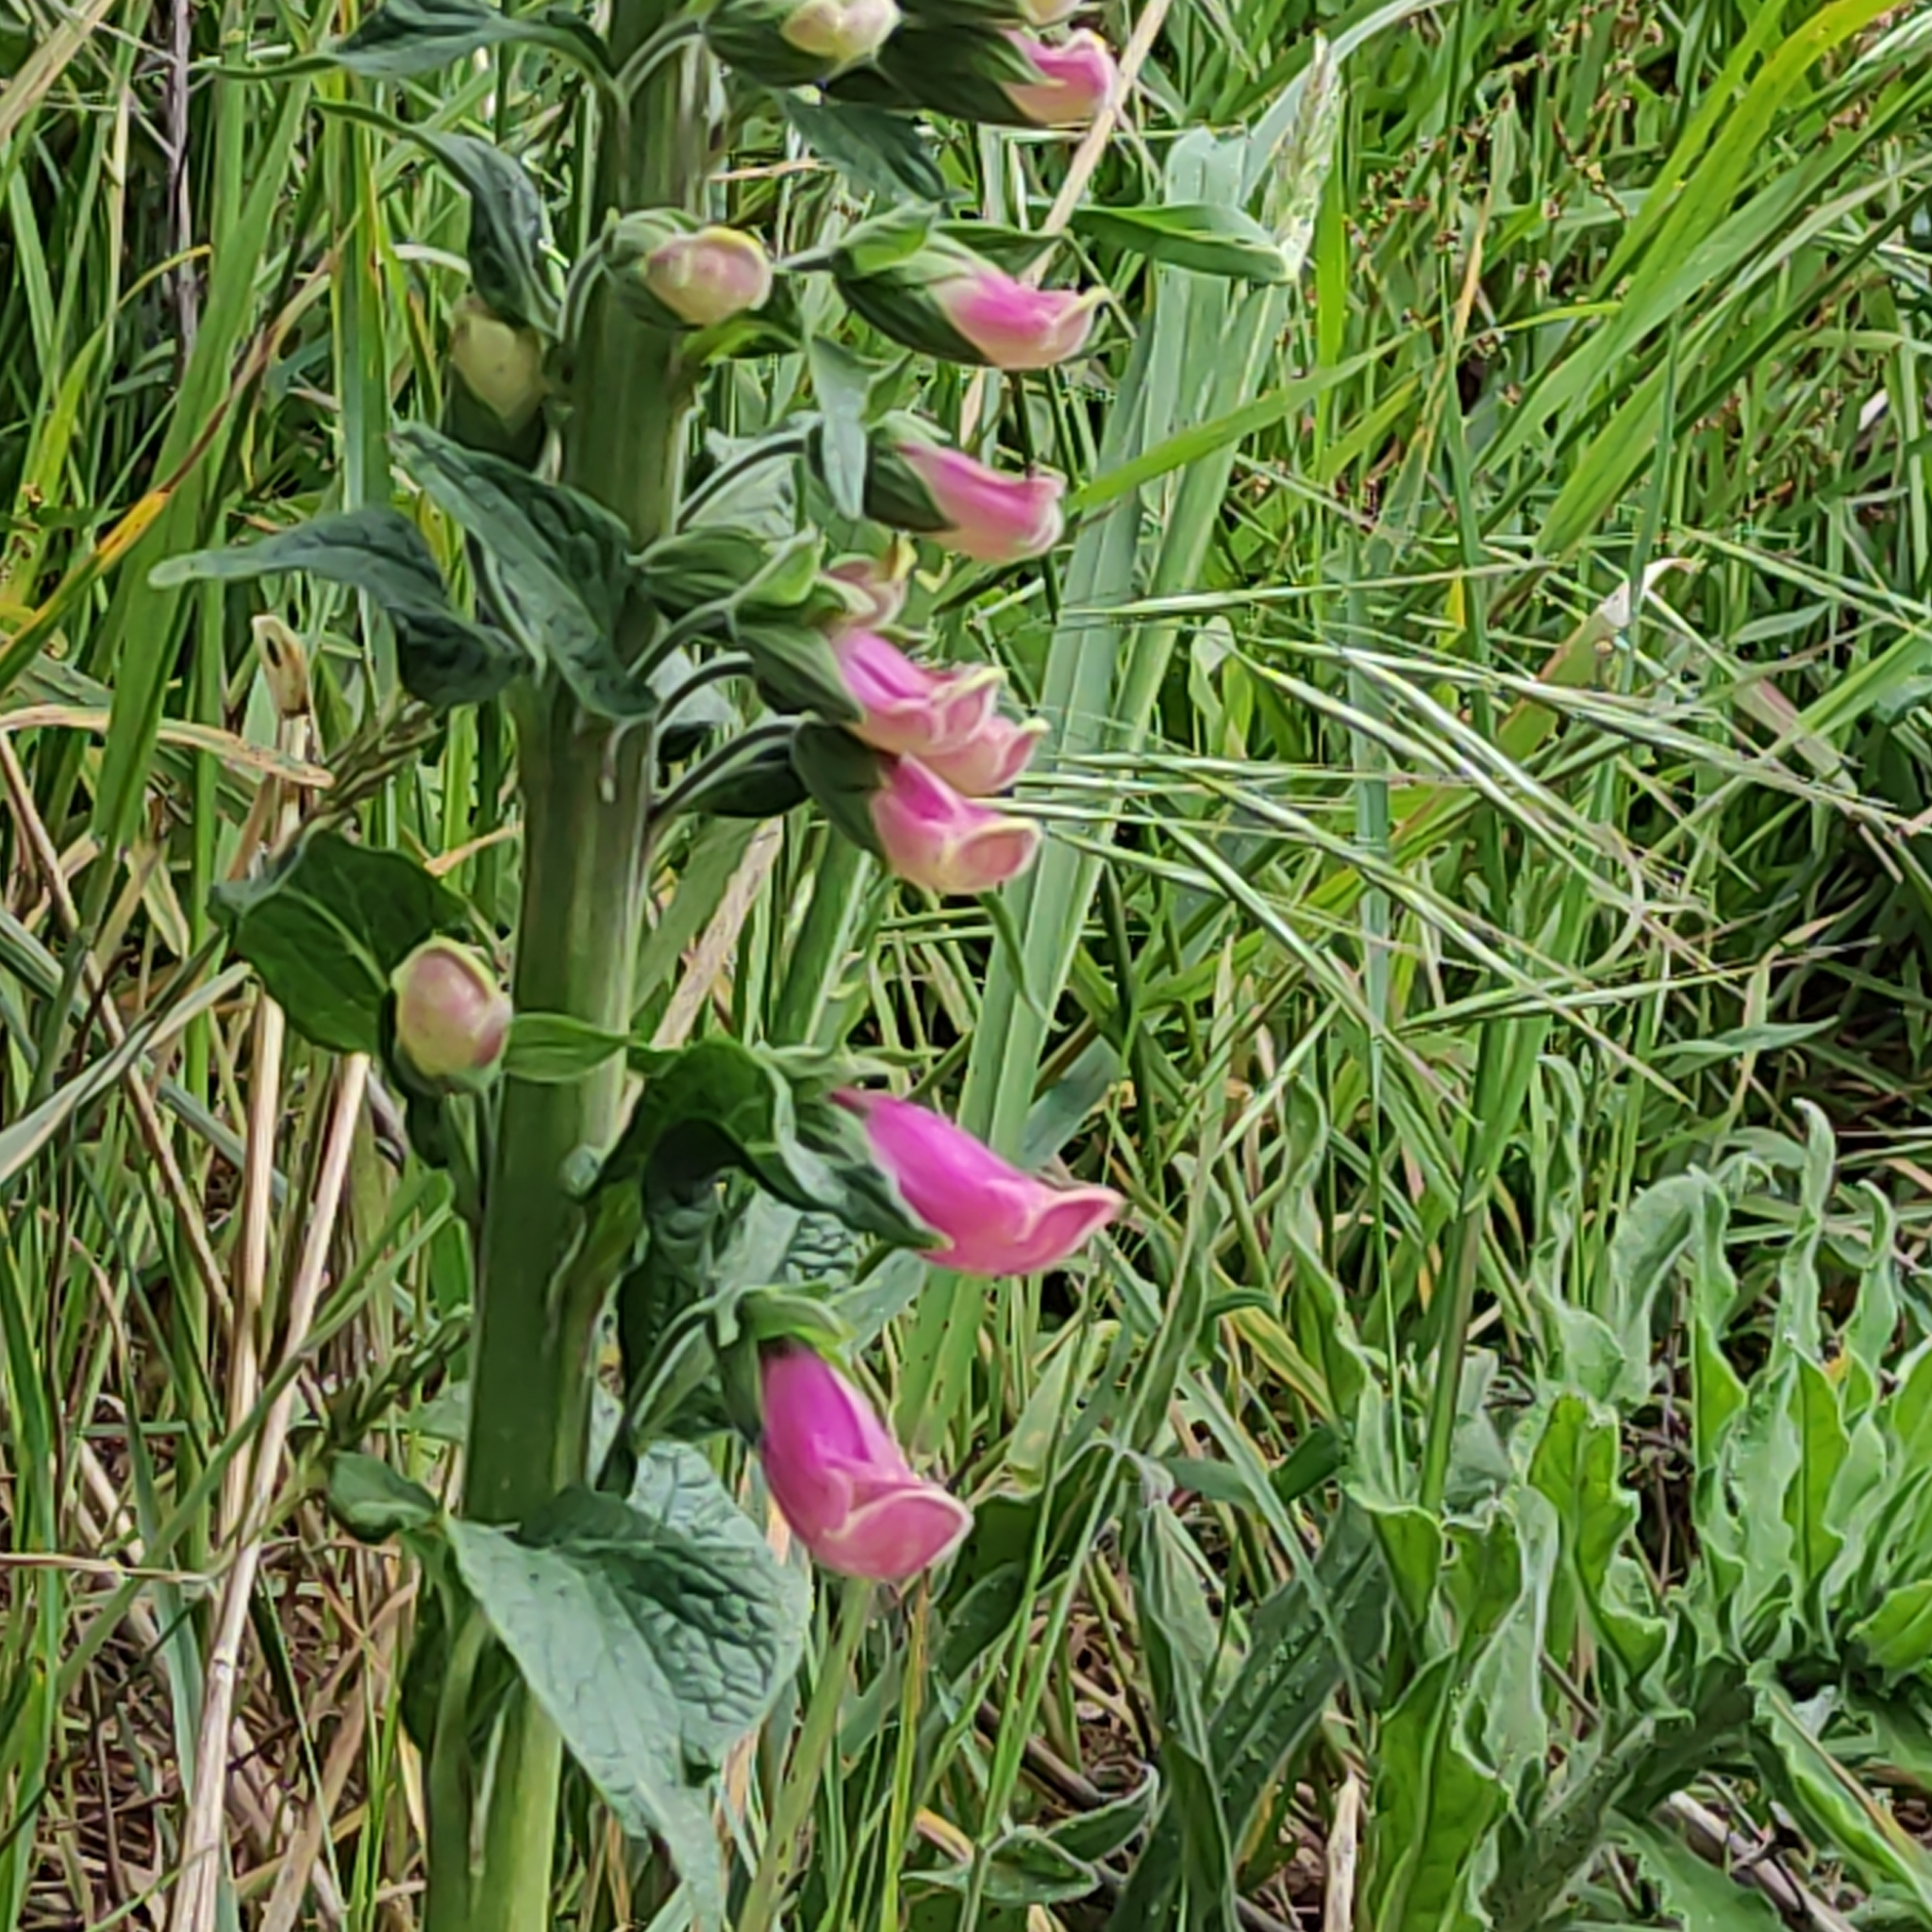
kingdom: Plantae
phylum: Tracheophyta
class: Magnoliopsida
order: Lamiales
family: Plantaginaceae
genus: Digitalis
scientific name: Digitalis purpurea
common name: Foxglove
